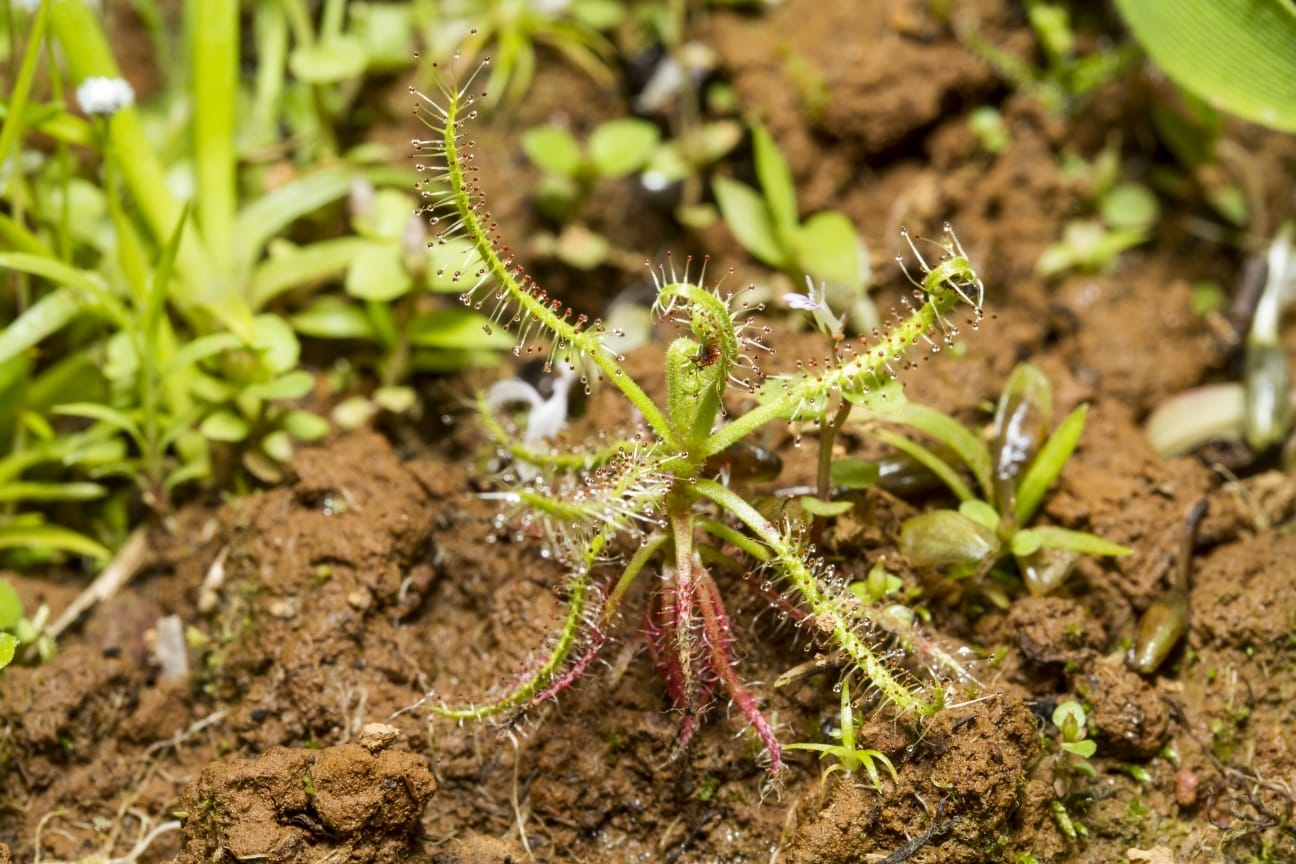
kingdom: Plantae
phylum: Tracheophyta
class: Magnoliopsida
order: Caryophyllales
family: Droseraceae
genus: Drosera
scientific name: Drosera indica
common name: Indian sundew
